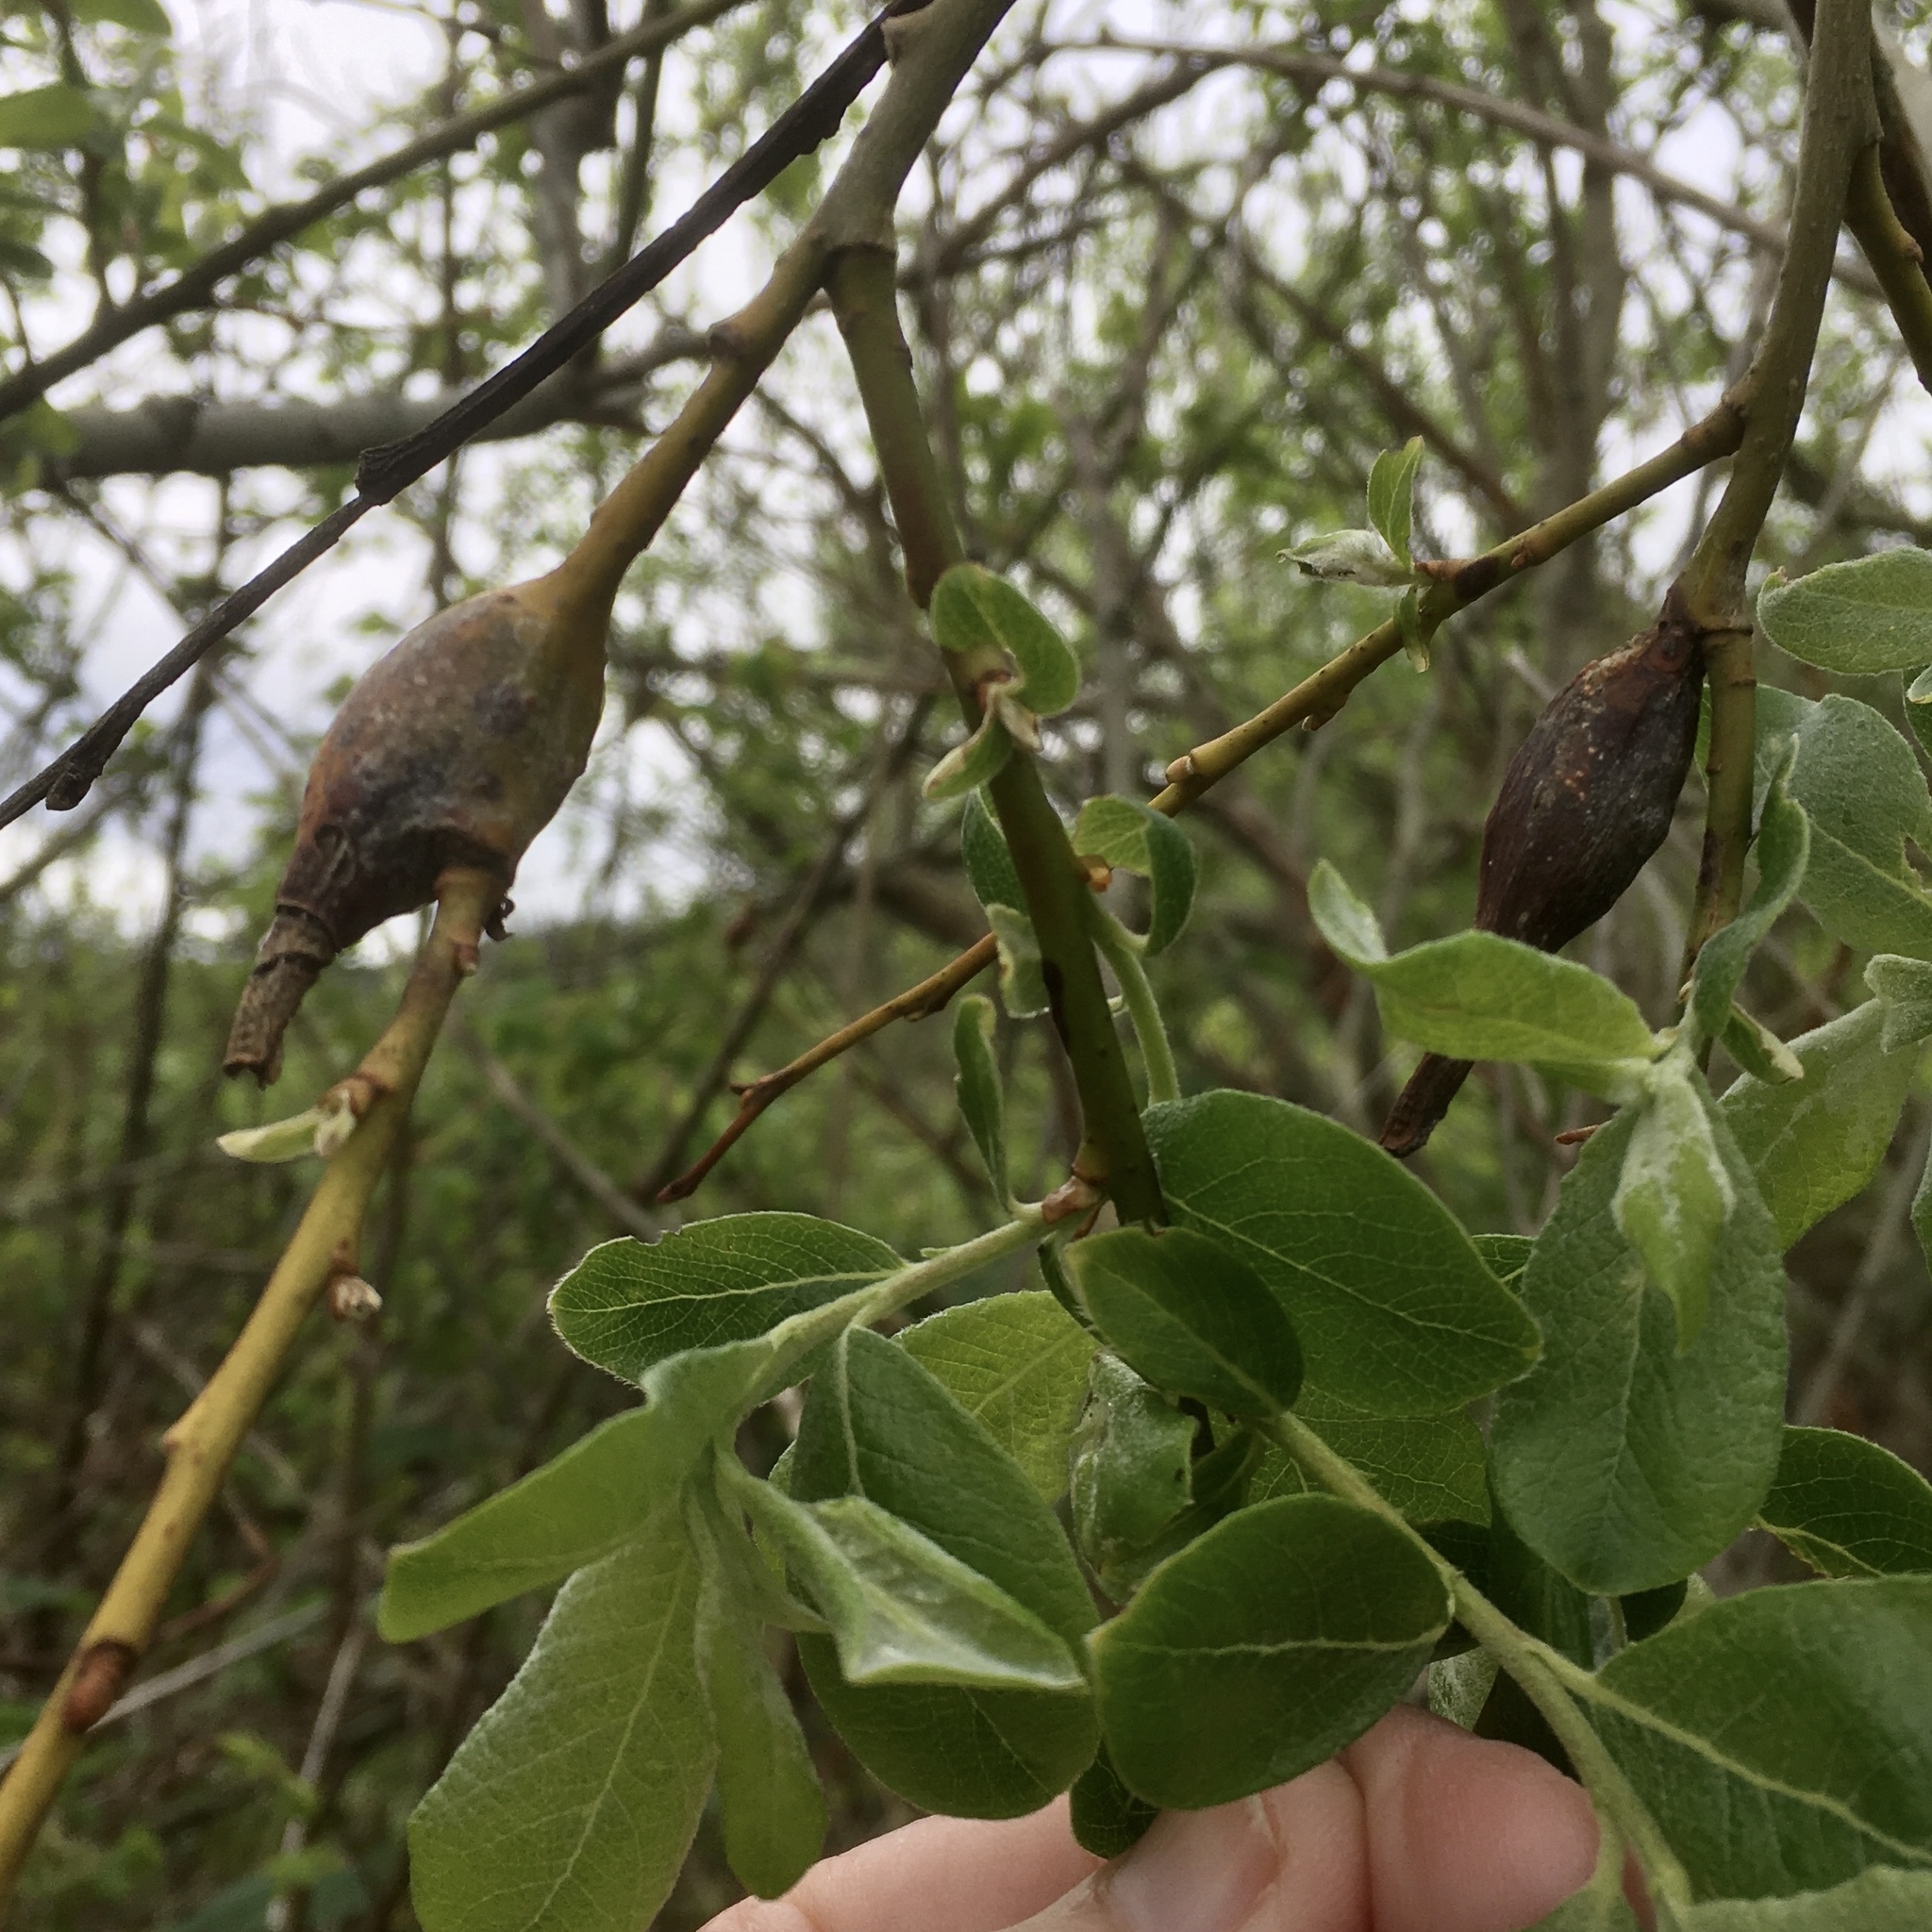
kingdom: Animalia
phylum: Arthropoda
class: Insecta
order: Diptera
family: Cecidomyiidae
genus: Thecodiplosis
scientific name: Thecodiplosis pinirigidae
